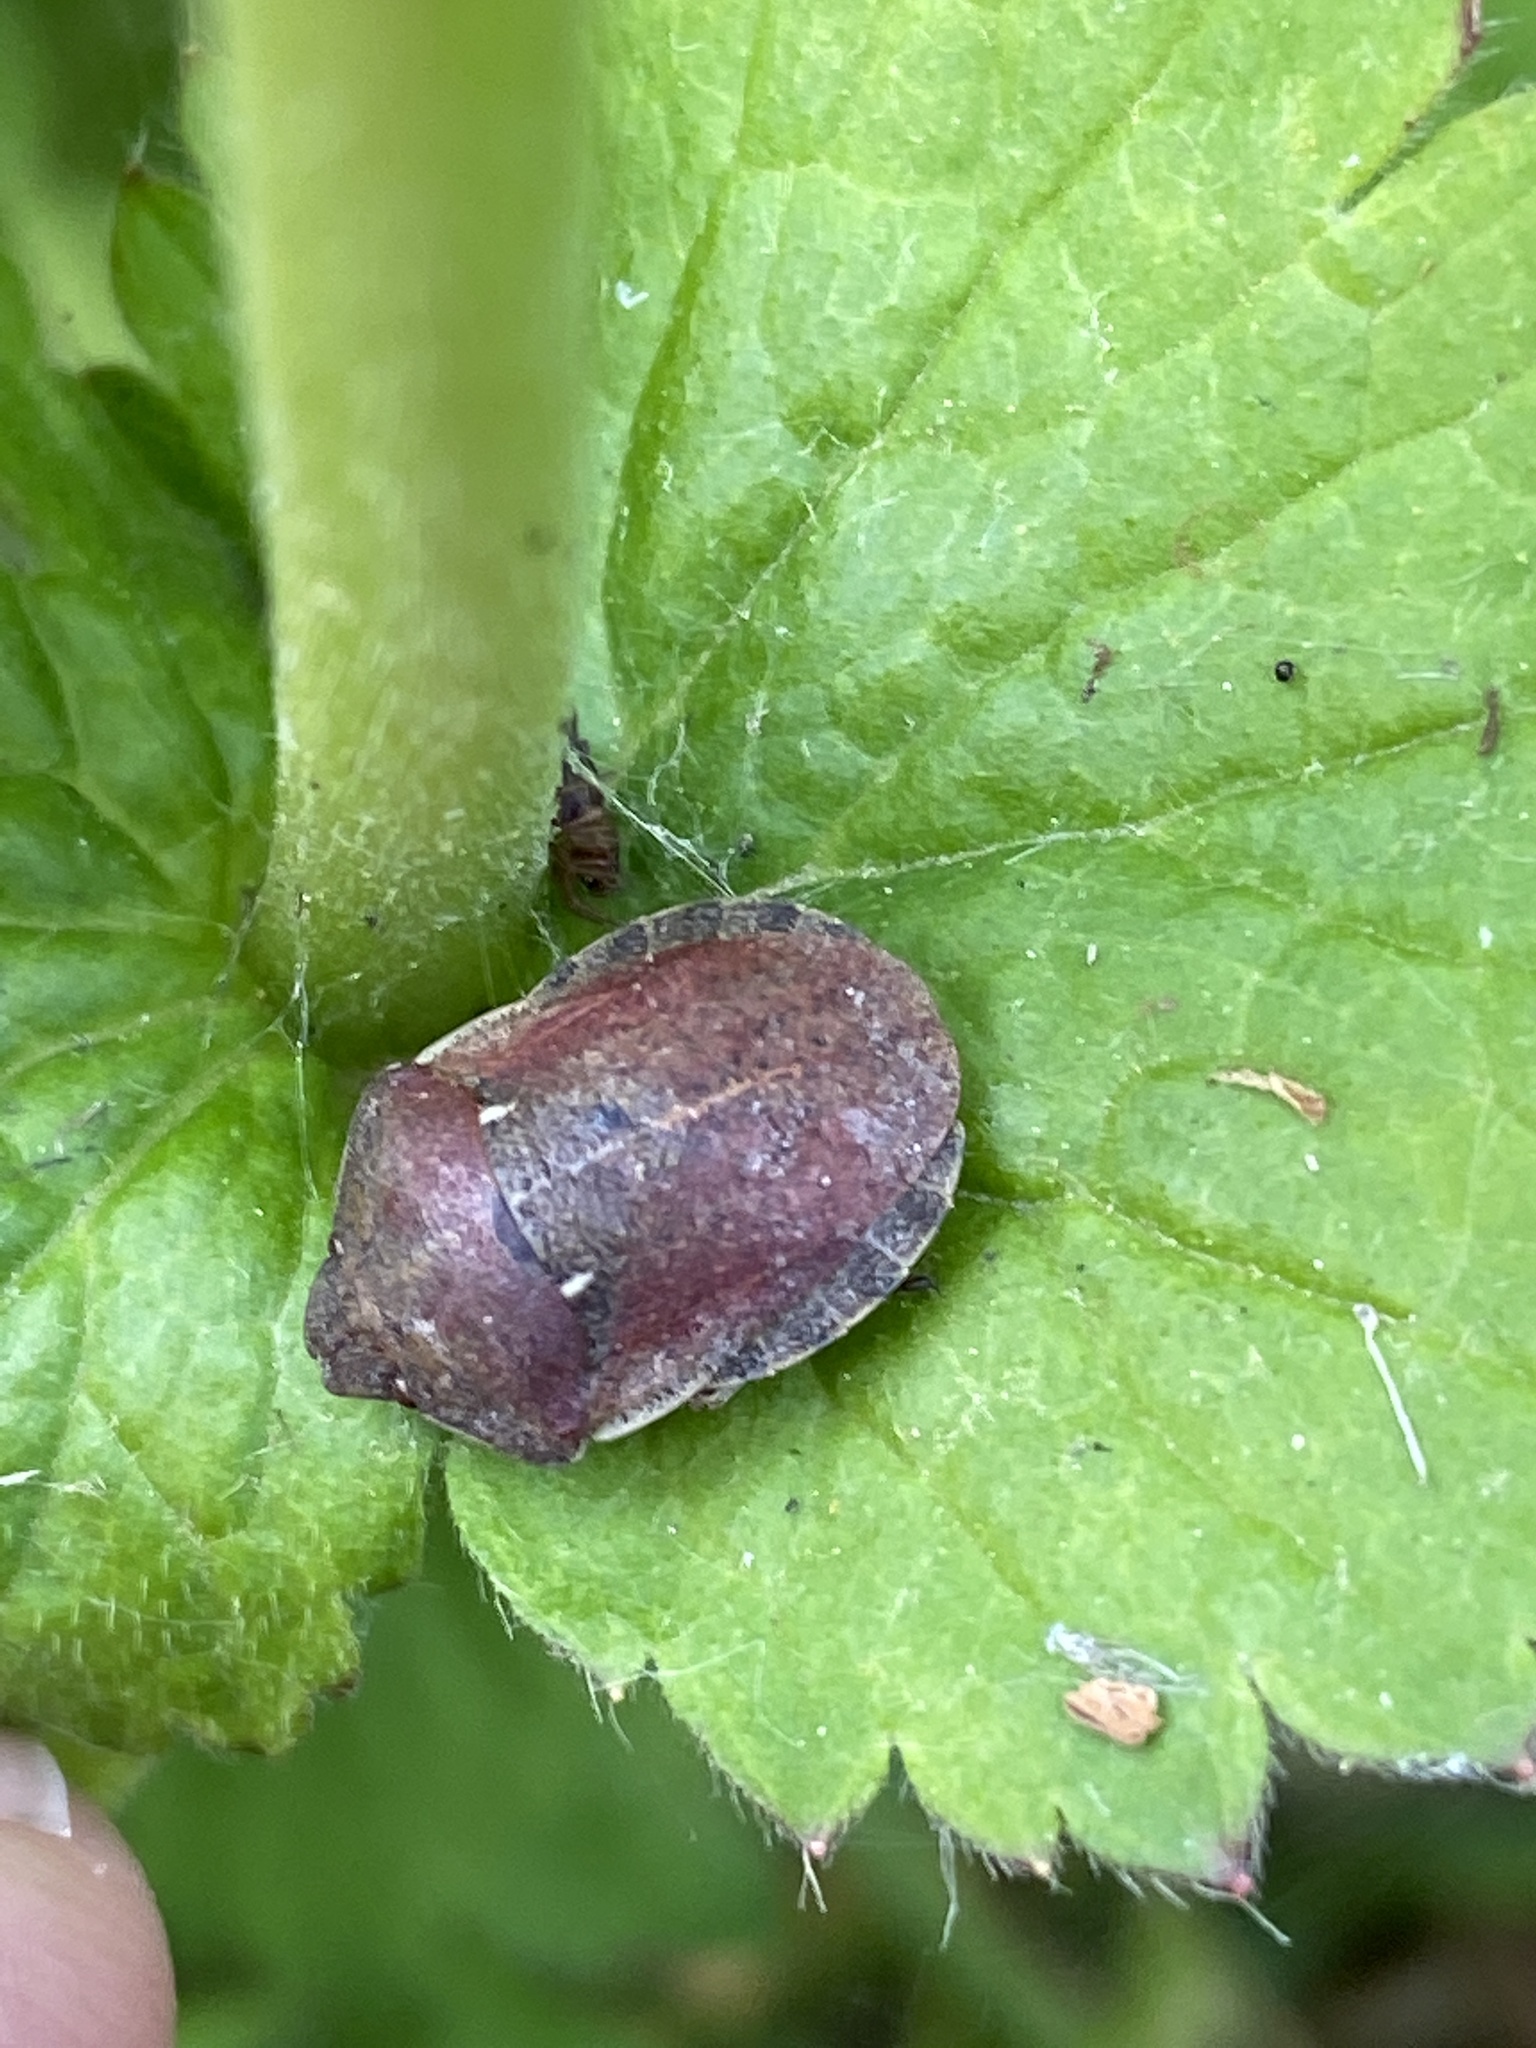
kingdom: Animalia
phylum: Arthropoda
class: Insecta
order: Hemiptera
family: Scutelleridae
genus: Eurygaster
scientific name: Eurygaster testudinaria
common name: Tortoise bug
